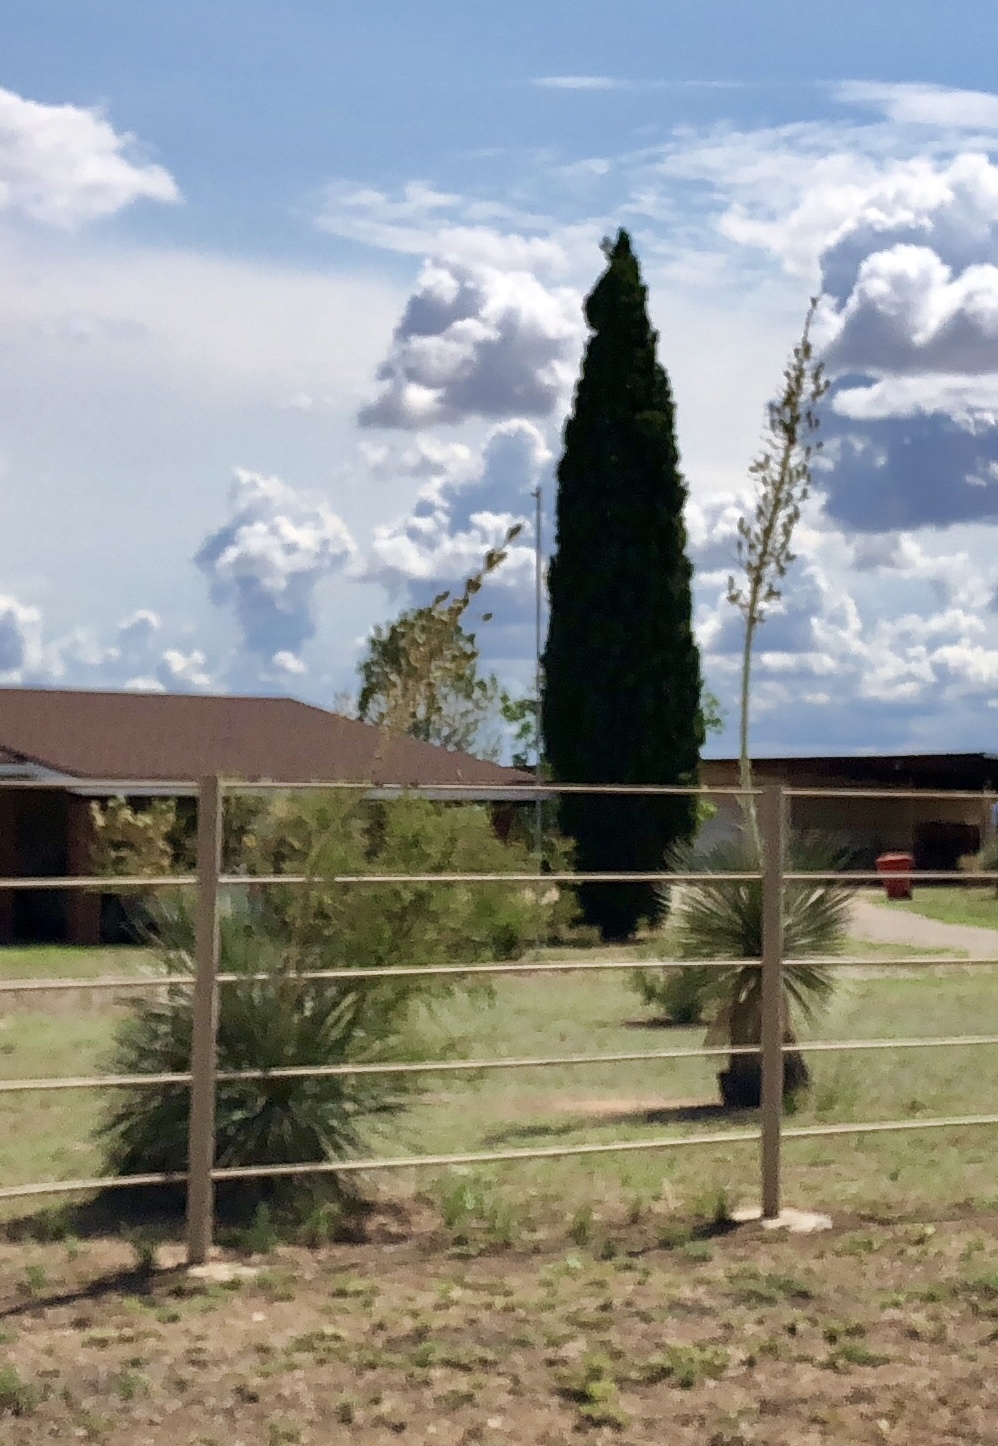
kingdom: Plantae
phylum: Tracheophyta
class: Liliopsida
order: Asparagales
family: Asparagaceae
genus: Yucca
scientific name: Yucca elata
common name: Palmella
